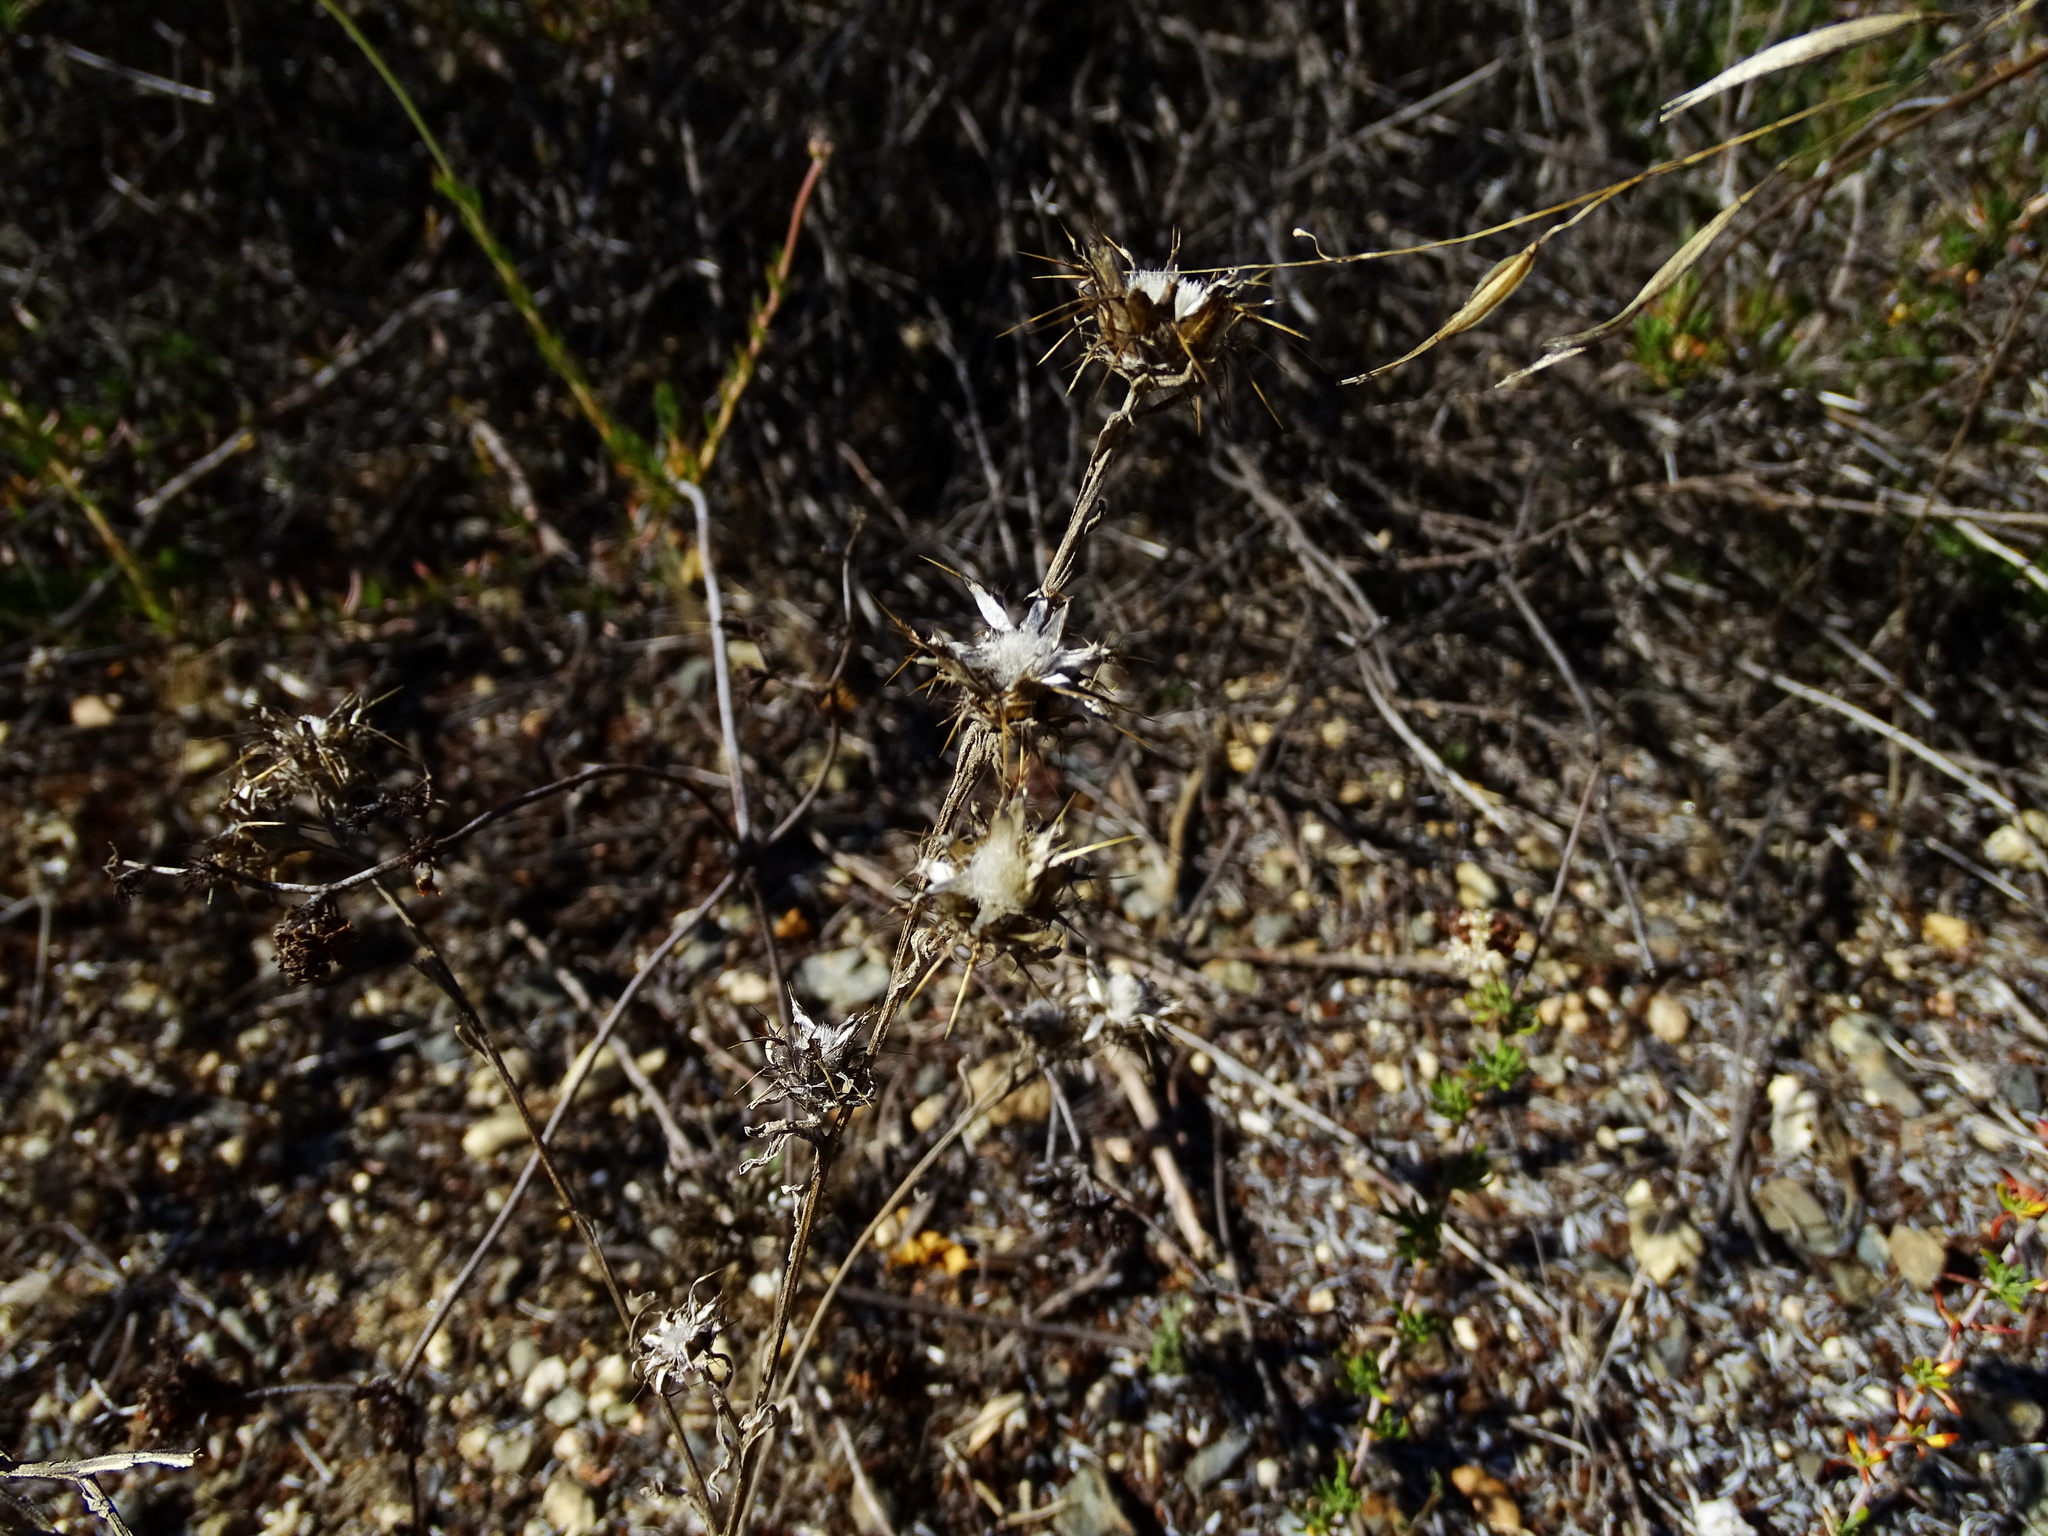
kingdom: Plantae
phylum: Tracheophyta
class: Magnoliopsida
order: Asterales
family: Asteraceae
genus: Centaurea
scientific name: Centaurea melitensis
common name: Maltese star-thistle
